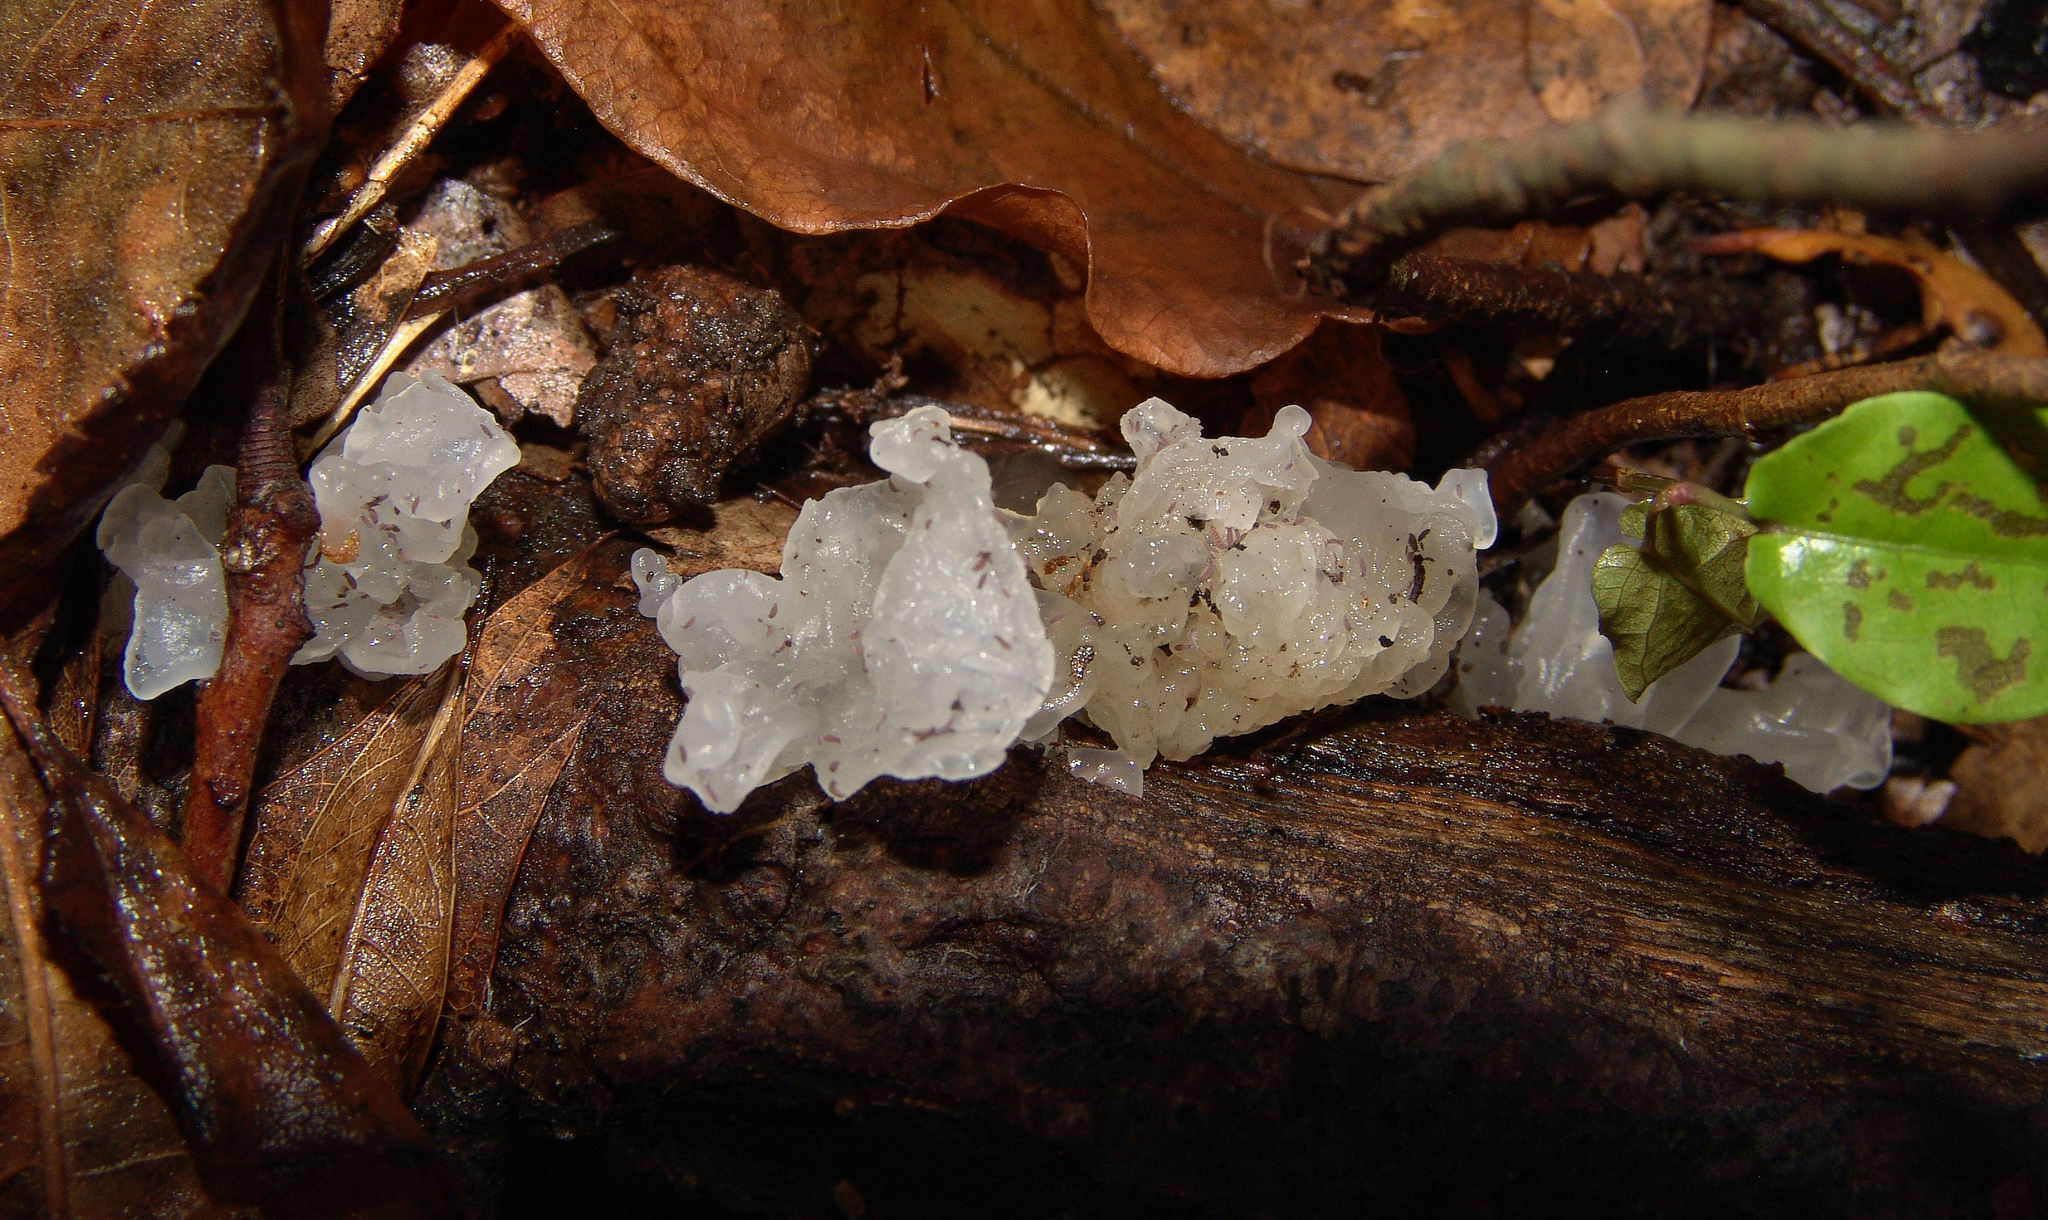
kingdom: Fungi
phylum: Basidiomycota
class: Tremellomycetes
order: Tremellales
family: Tremellaceae
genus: Tremella
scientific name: Tremella fuciformis
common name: Snow fungus
